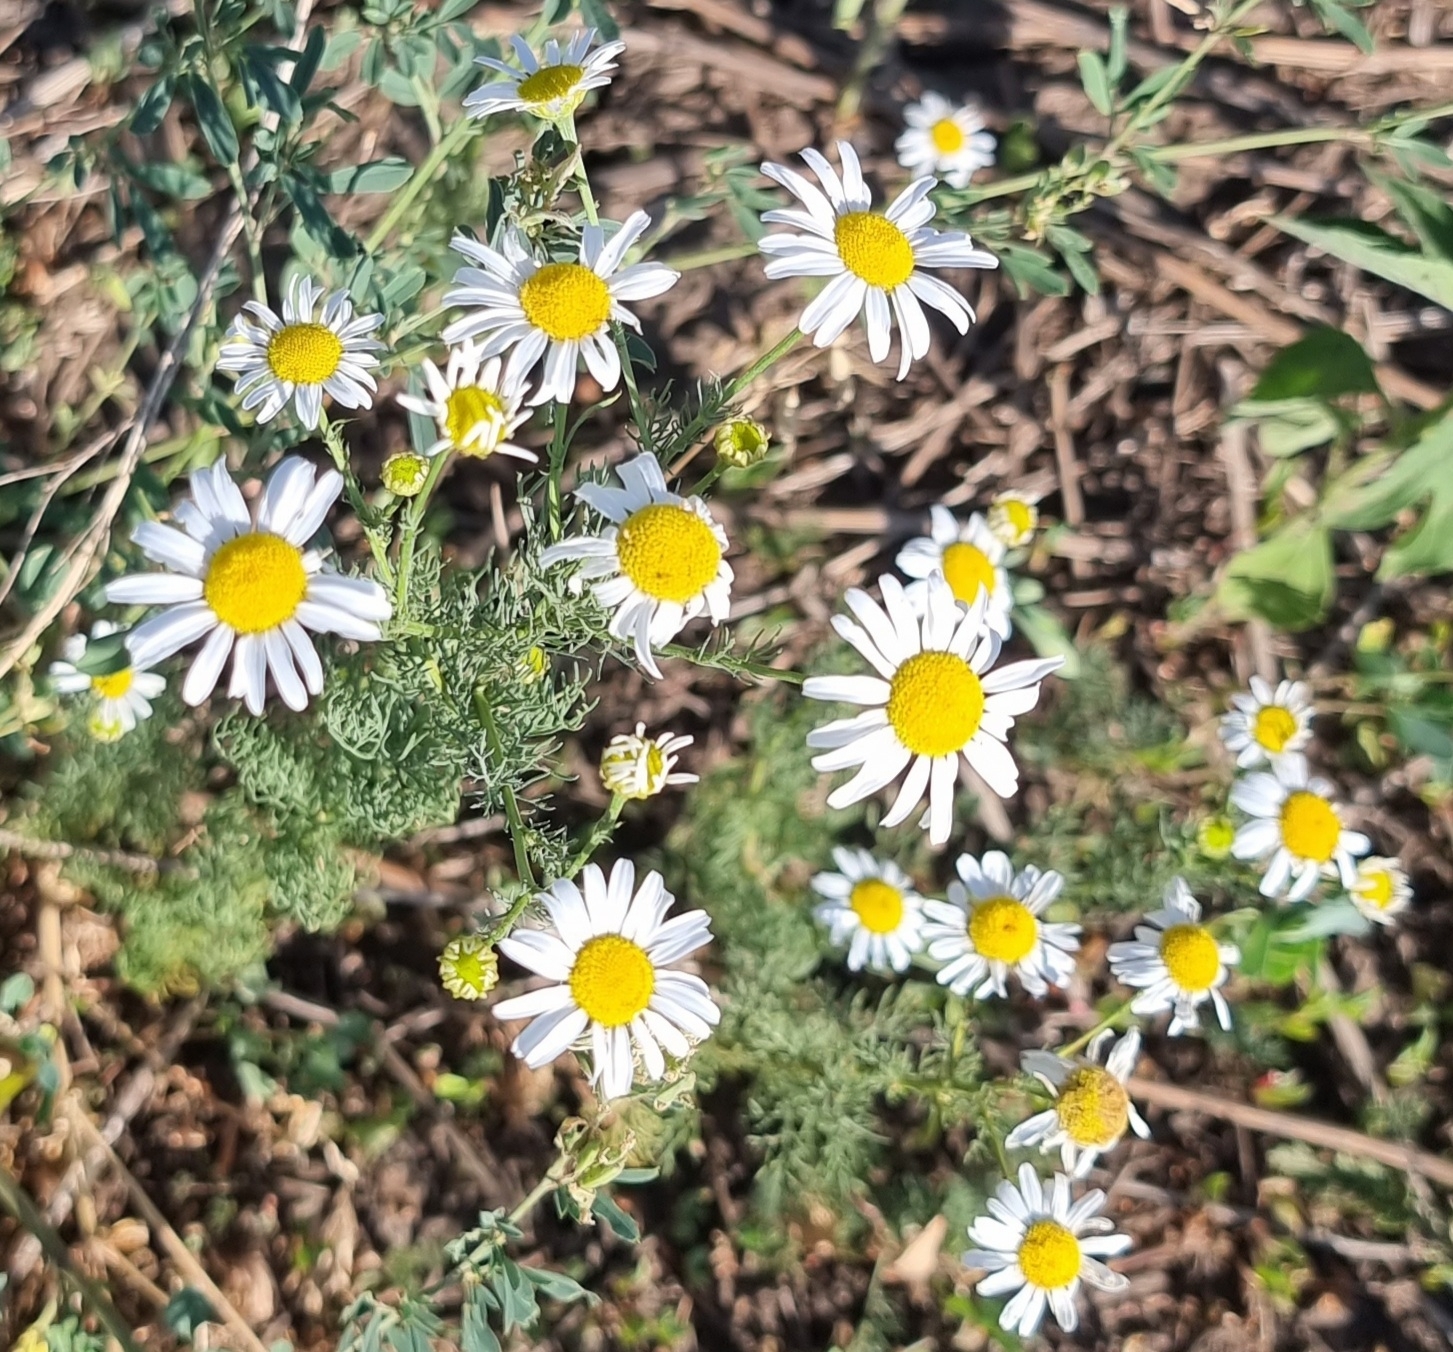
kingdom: Plantae
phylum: Tracheophyta
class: Magnoliopsida
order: Asterales
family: Asteraceae
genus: Tripleurospermum
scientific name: Tripleurospermum inodorum
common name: Scentless mayweed
